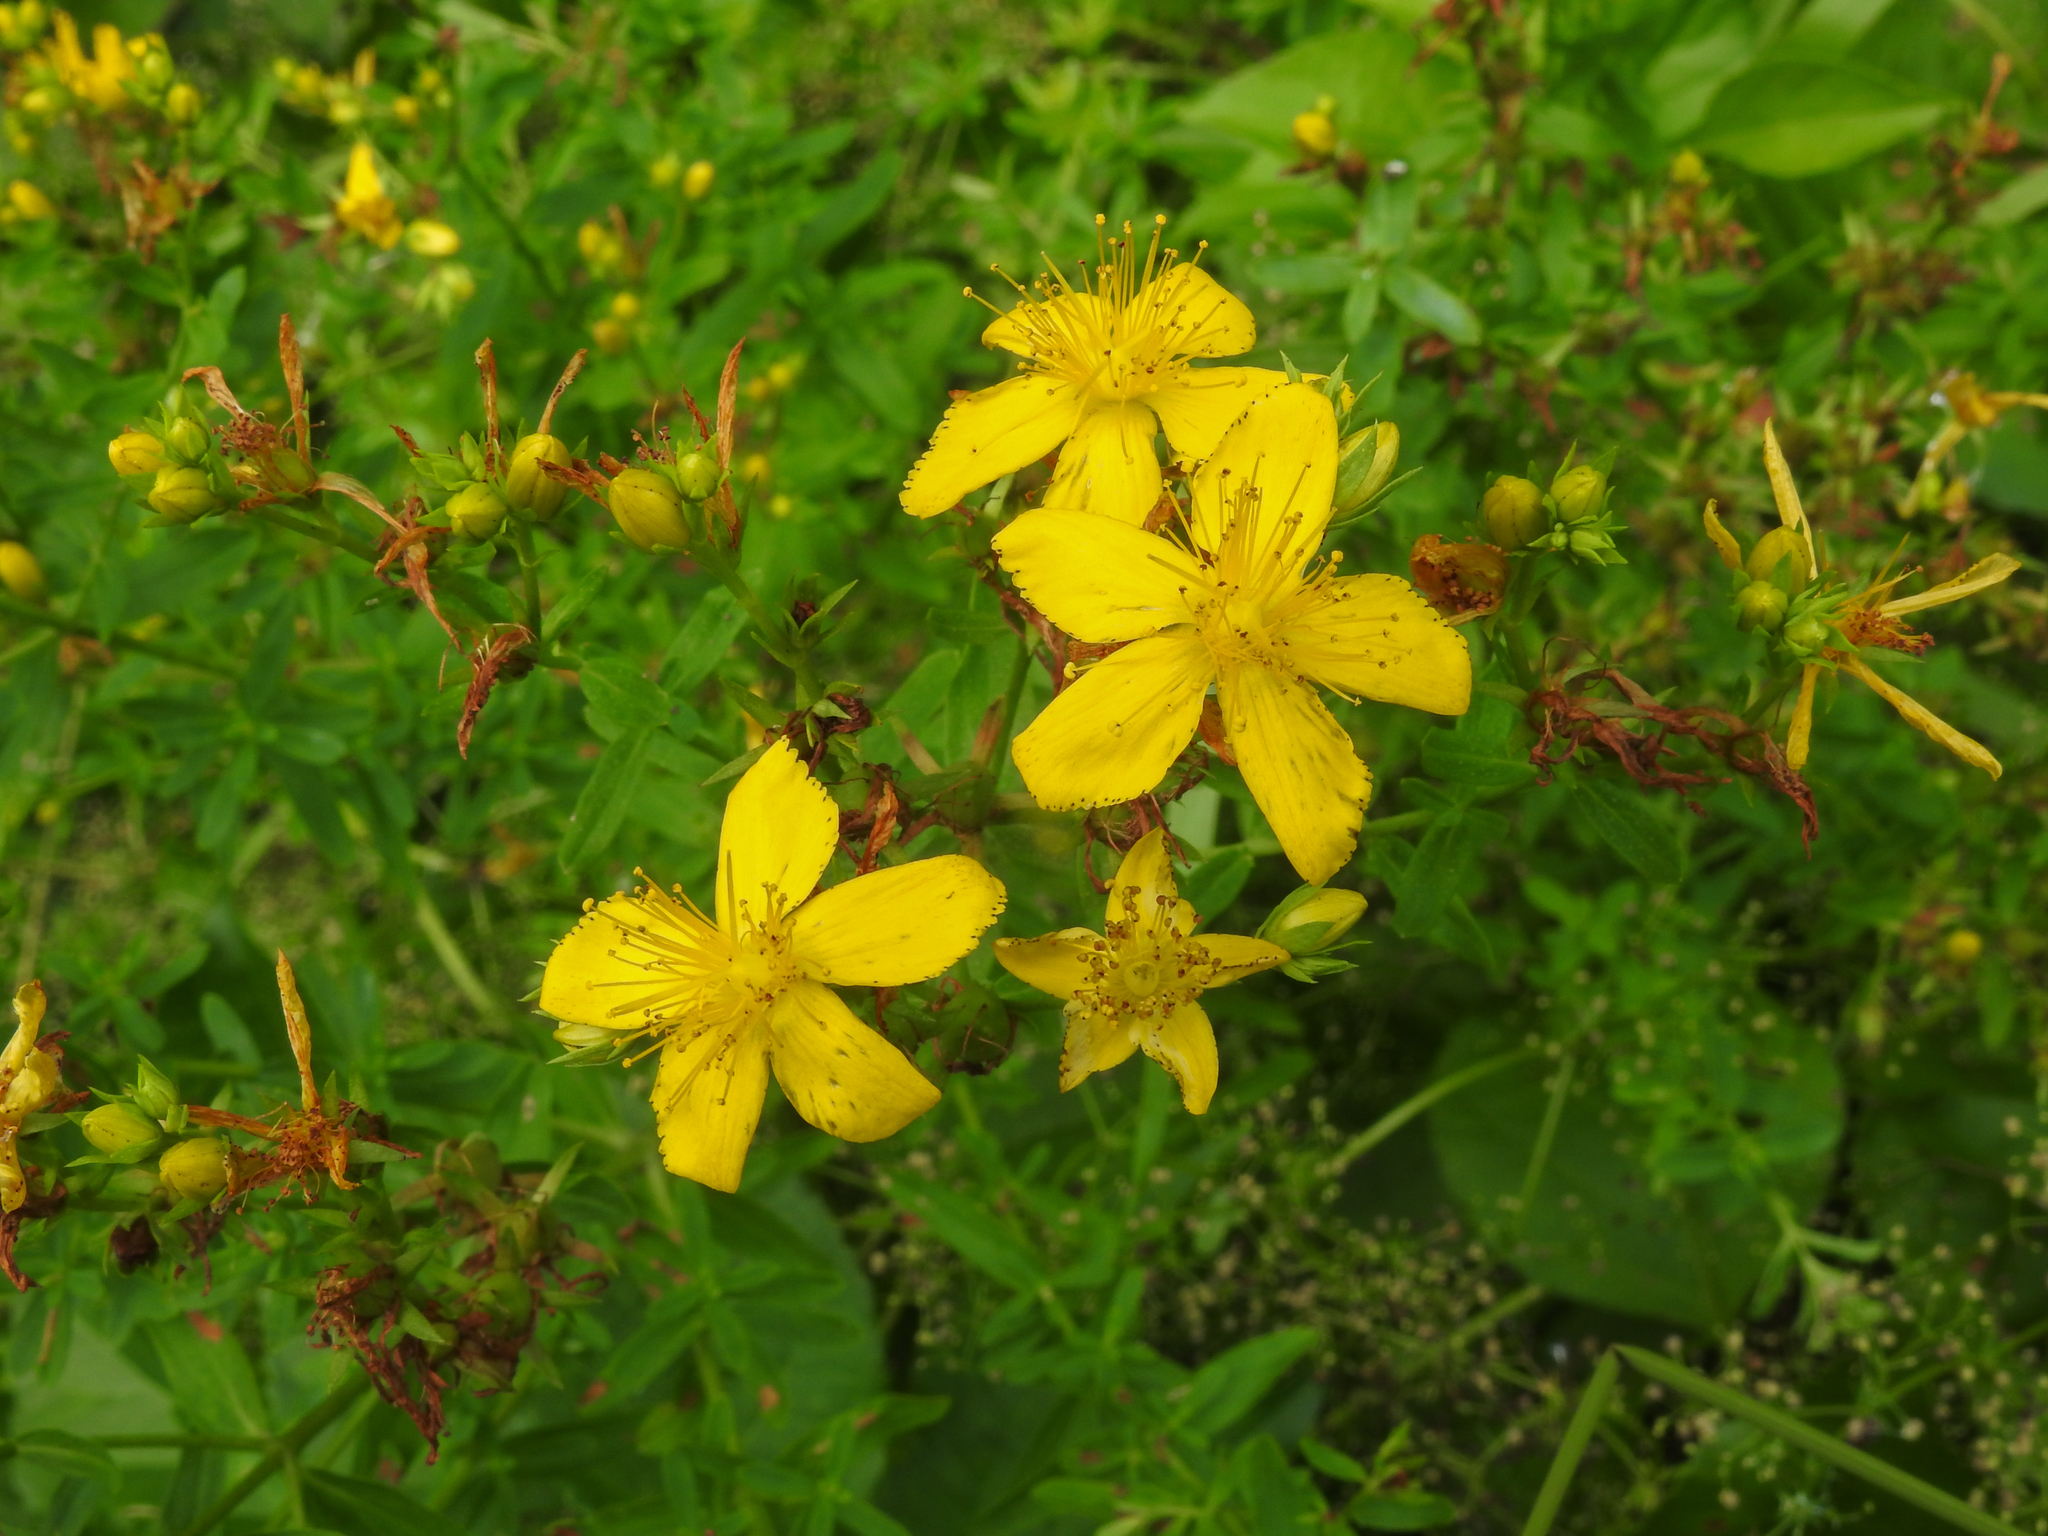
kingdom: Plantae
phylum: Tracheophyta
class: Magnoliopsida
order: Malpighiales
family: Hypericaceae
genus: Hypericum
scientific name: Hypericum perforatum
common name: Common st. johnswort
